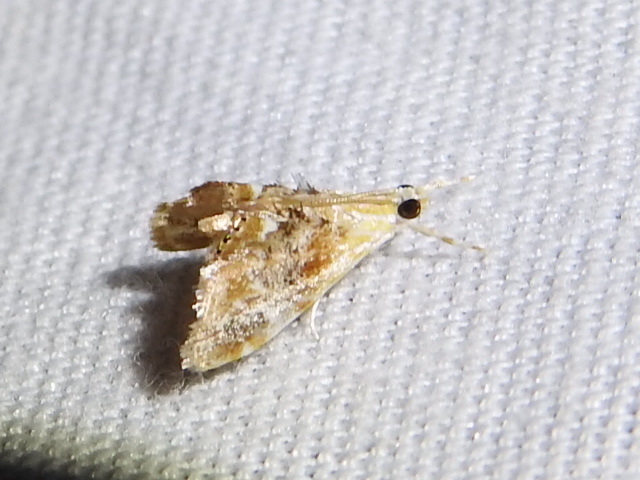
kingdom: Animalia
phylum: Arthropoda
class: Insecta
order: Lepidoptera
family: Crambidae
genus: Dicymolomia
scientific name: Dicymolomia julianalis
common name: Julia's dicymolomia moth
